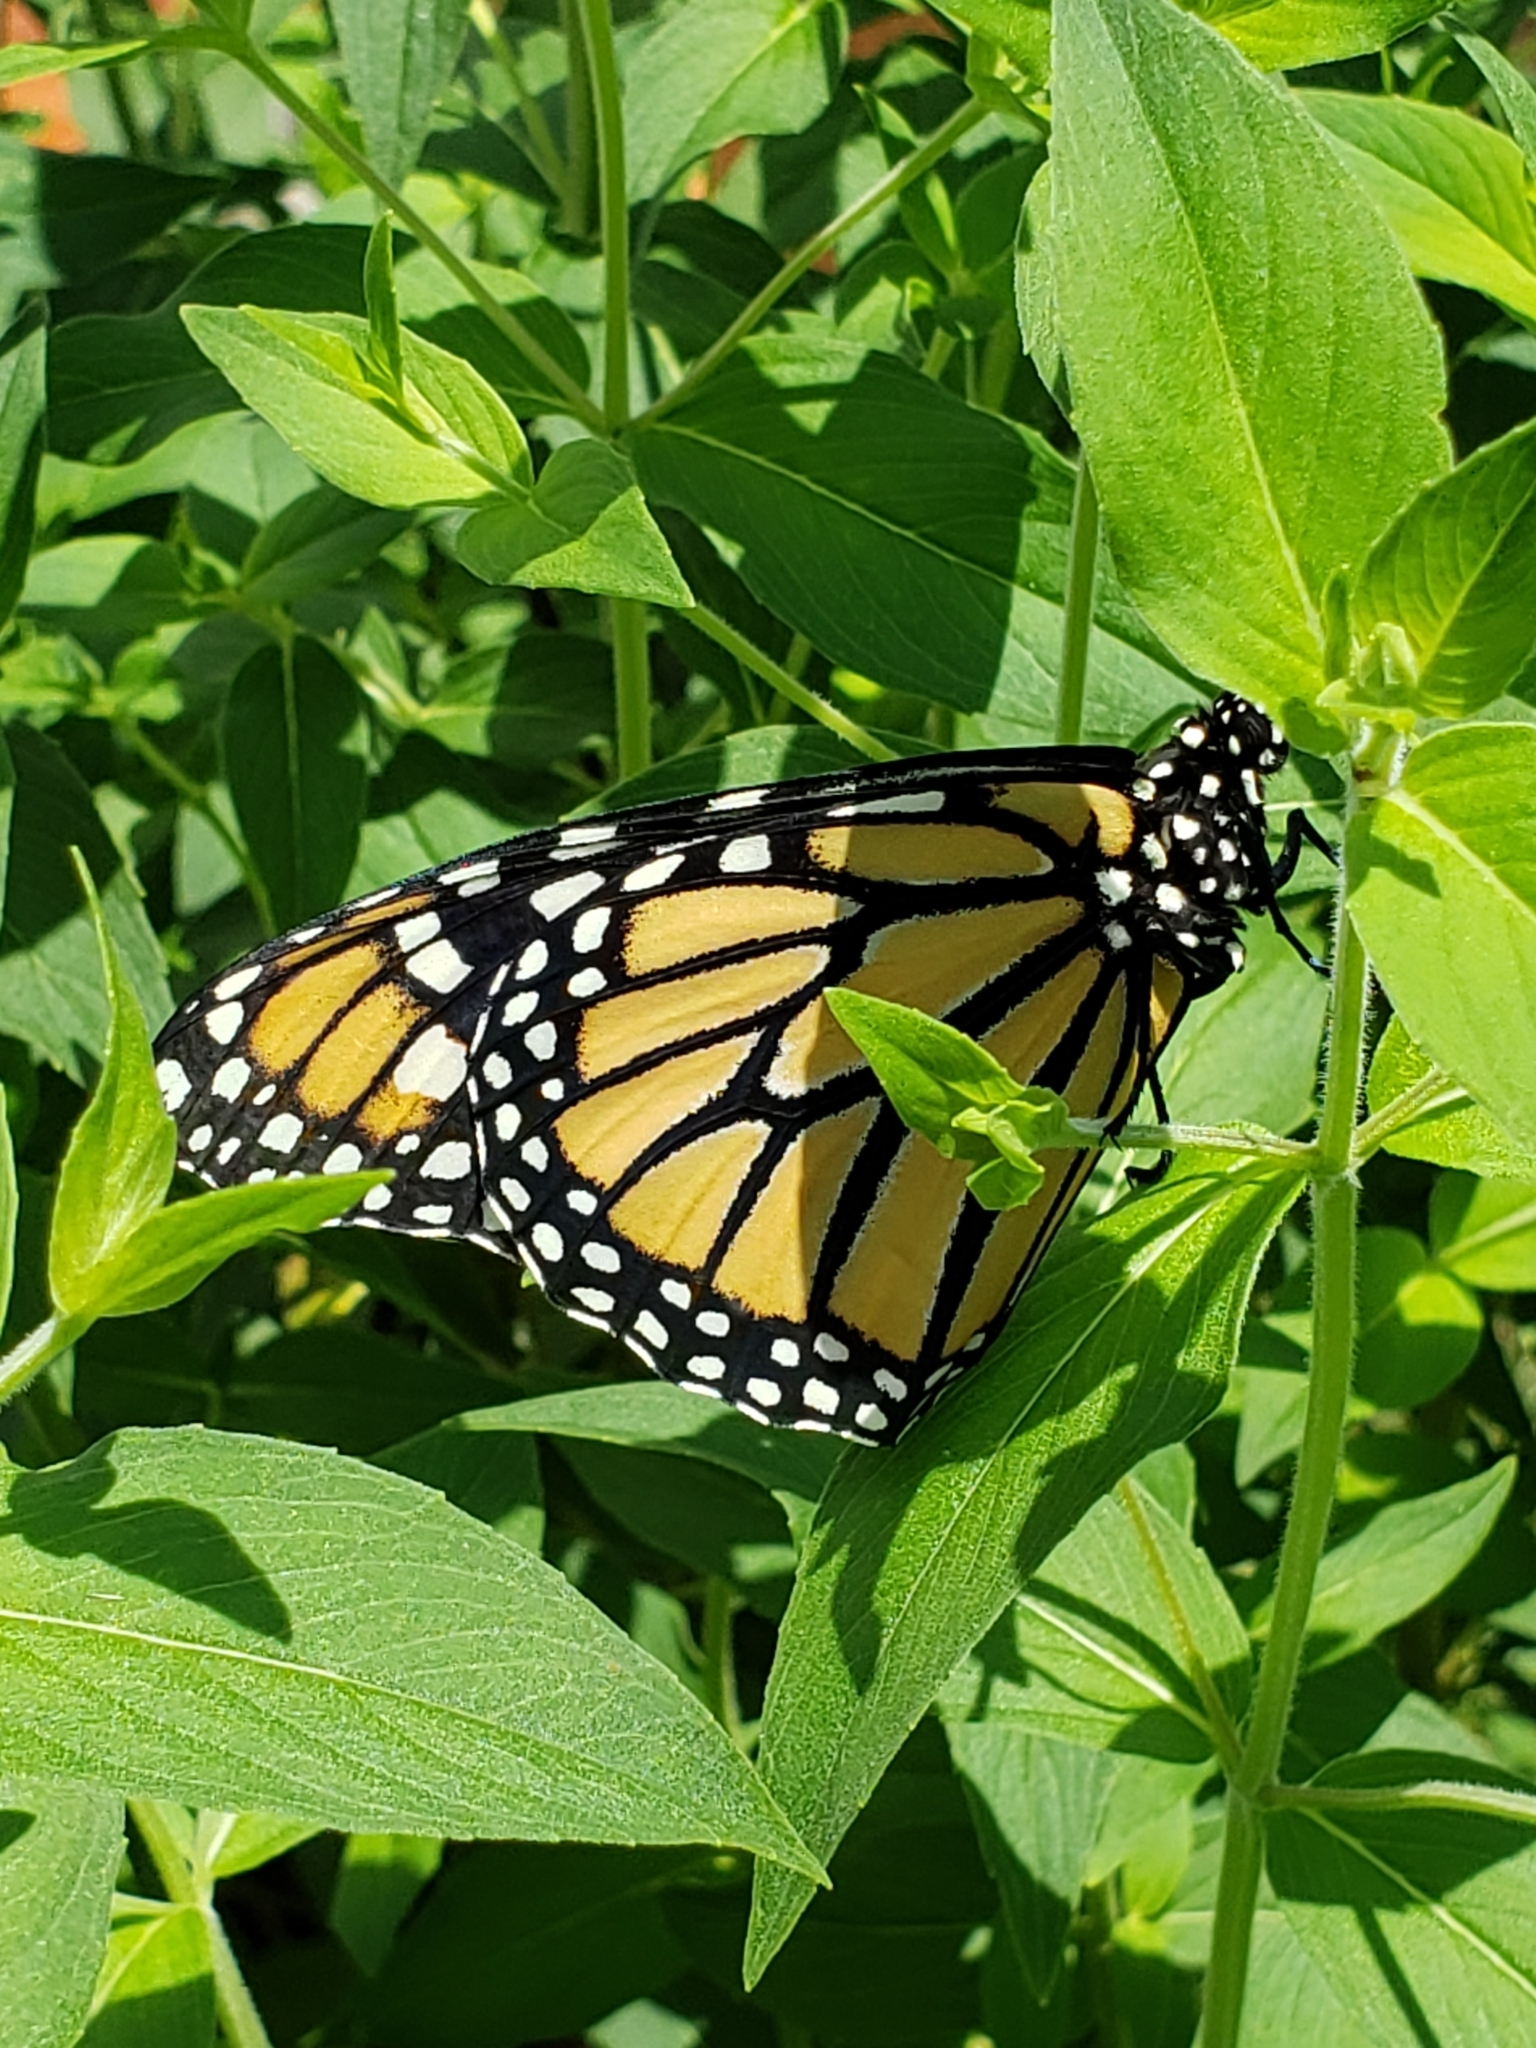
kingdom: Animalia
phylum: Arthropoda
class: Insecta
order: Lepidoptera
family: Nymphalidae
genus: Danaus
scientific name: Danaus plexippus
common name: Monarch
